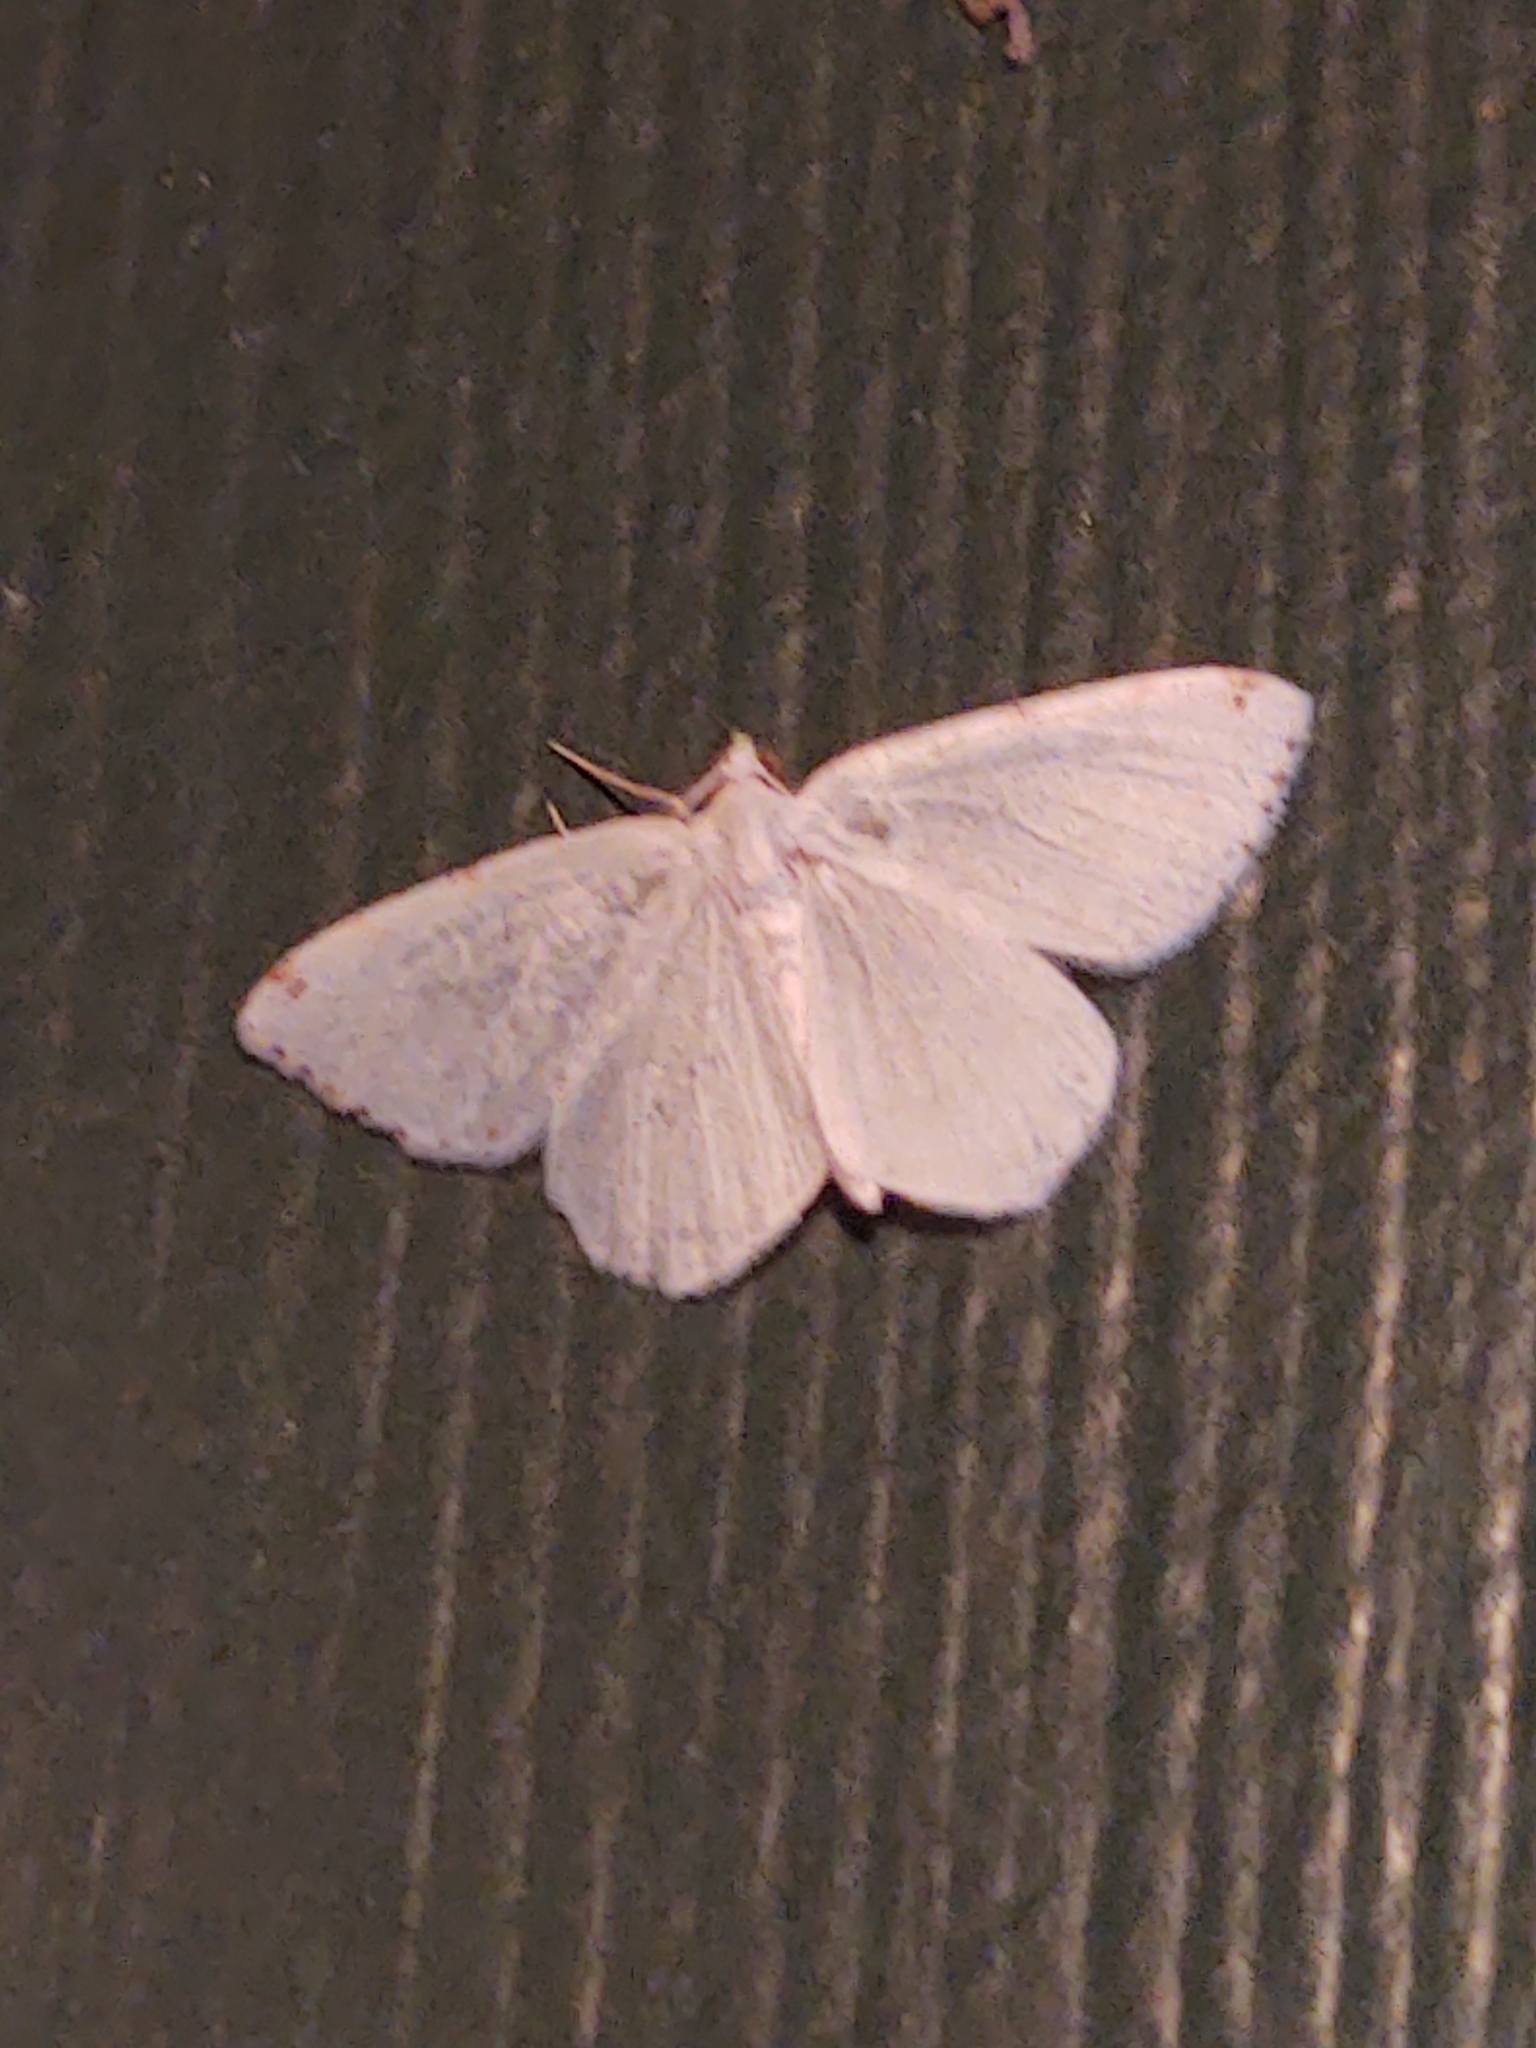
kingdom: Animalia
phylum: Arthropoda
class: Insecta
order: Lepidoptera
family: Geometridae
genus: Macaria
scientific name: Macaria pustularia
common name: Lesser maple spanworm moth
